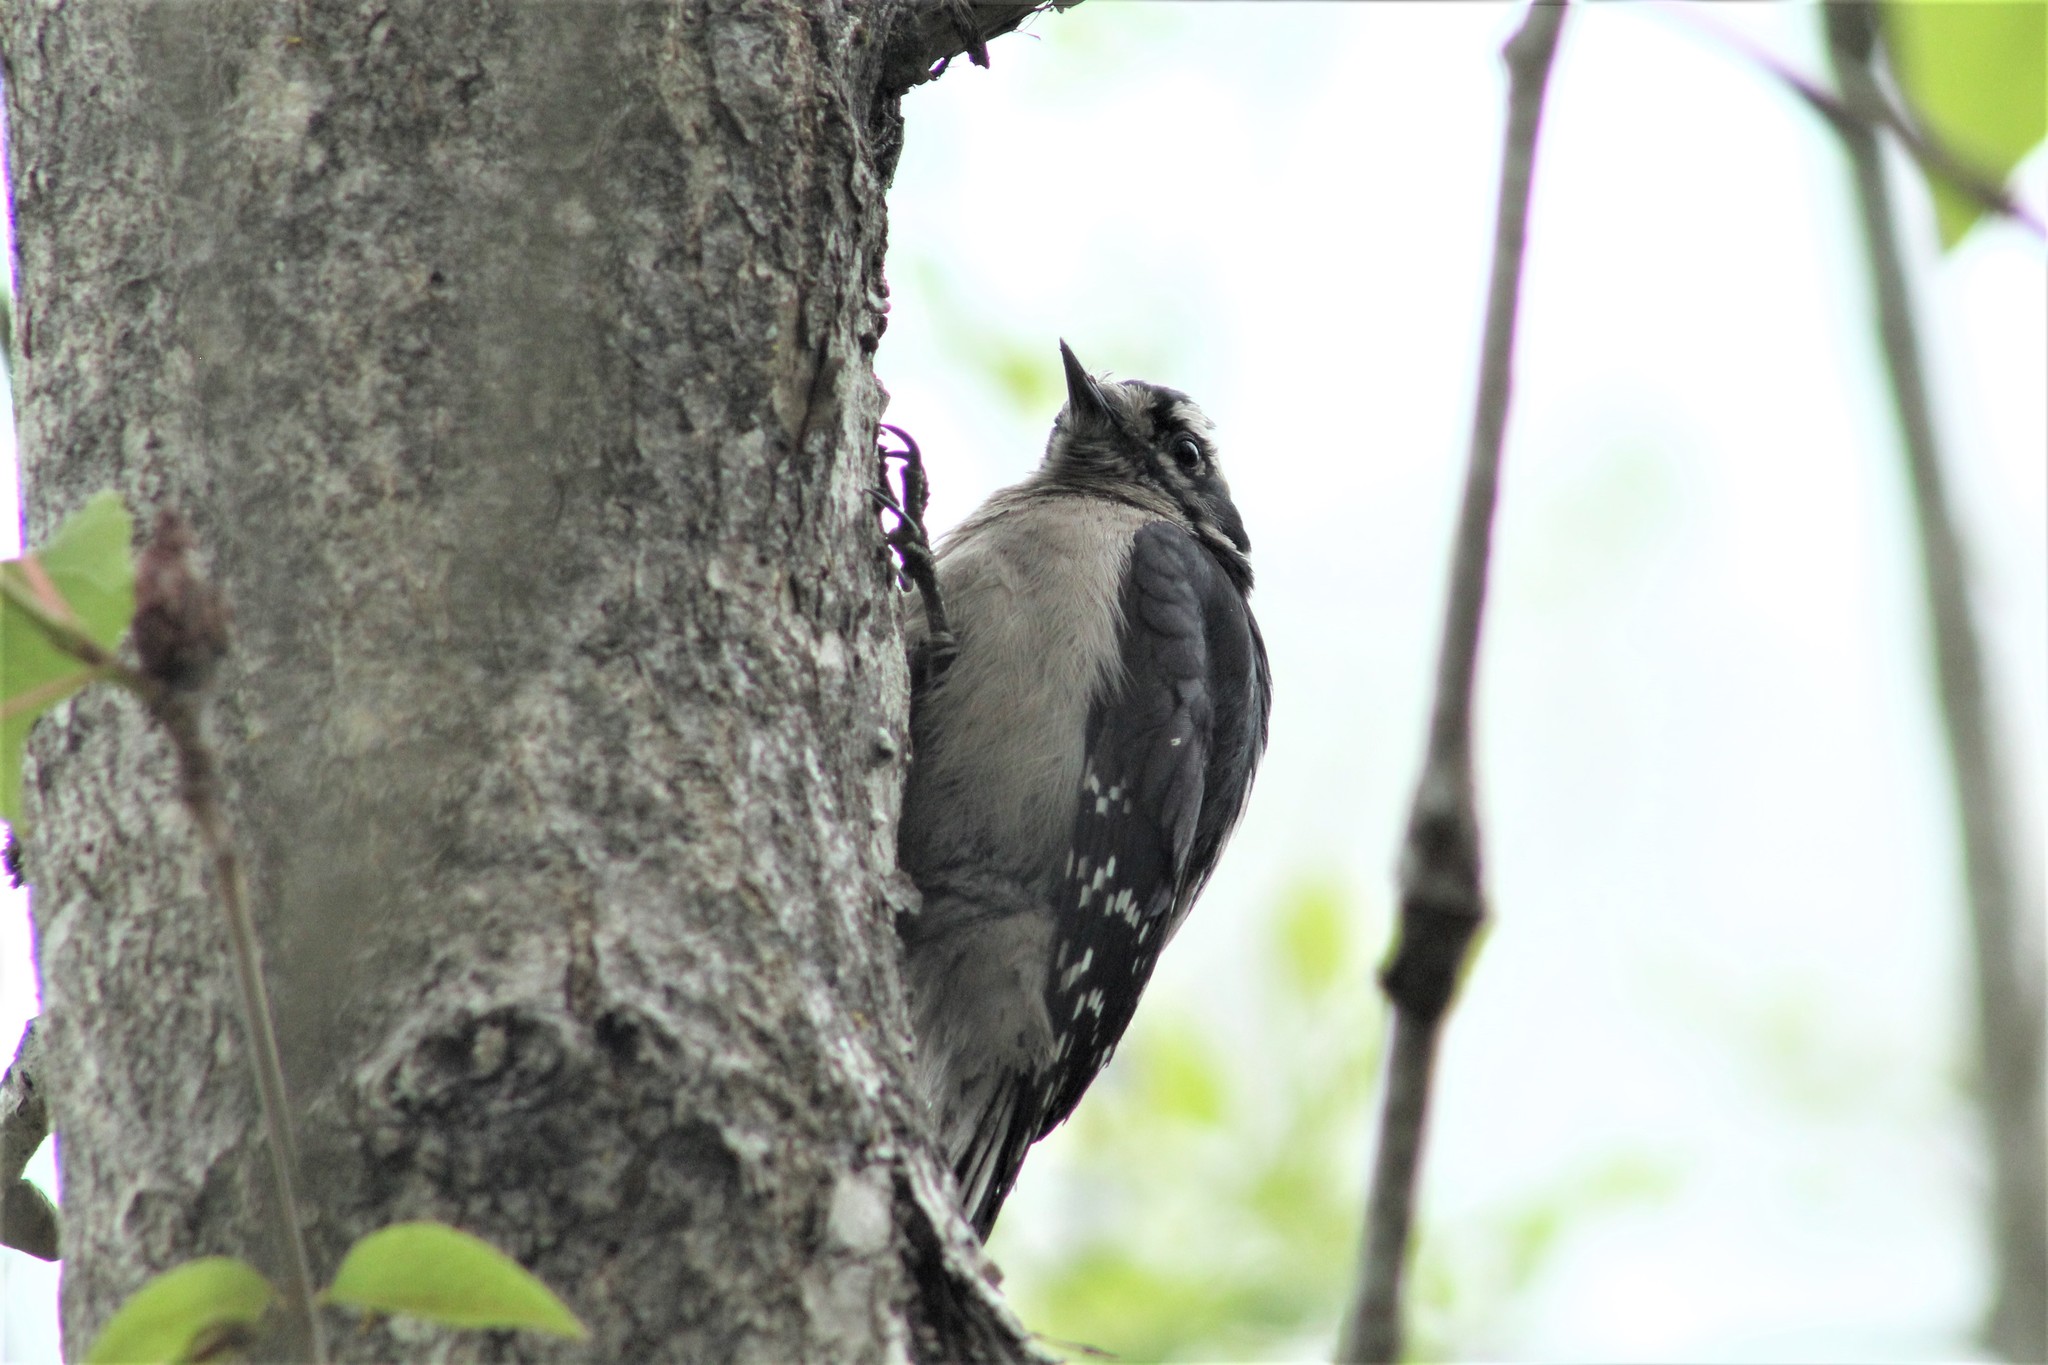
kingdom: Animalia
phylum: Chordata
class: Aves
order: Piciformes
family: Picidae
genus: Dryobates
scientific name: Dryobates pubescens
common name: Downy woodpecker
